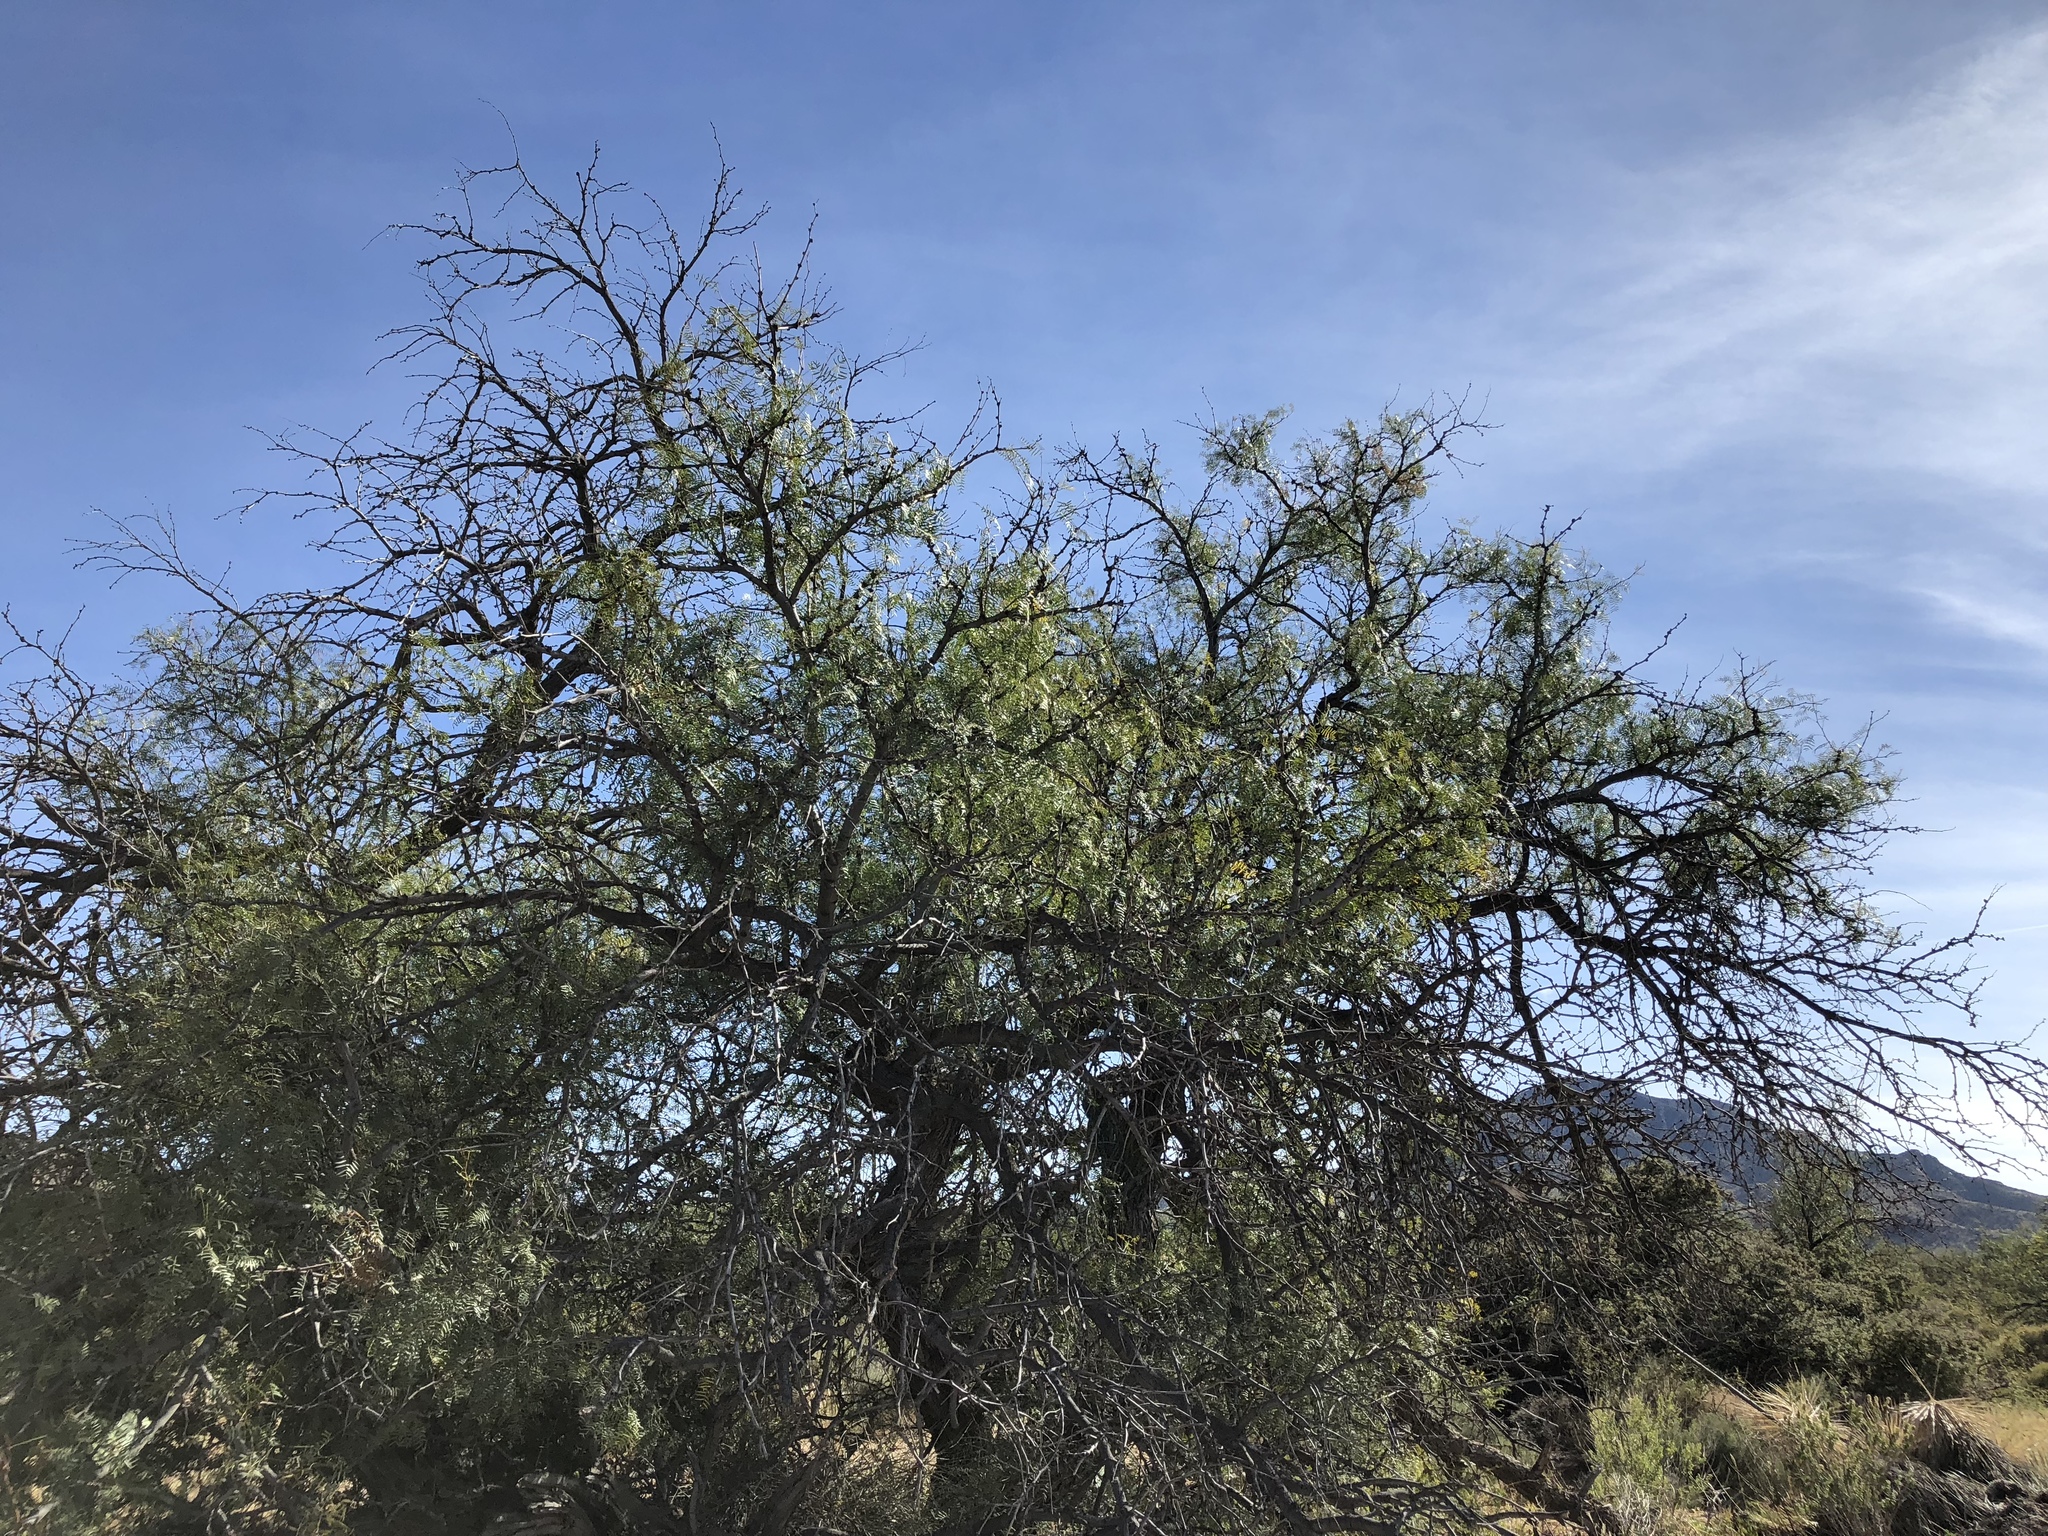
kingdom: Plantae
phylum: Tracheophyta
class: Magnoliopsida
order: Fabales
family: Fabaceae
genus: Prosopis
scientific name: Prosopis glandulosa
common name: Honey mesquite
